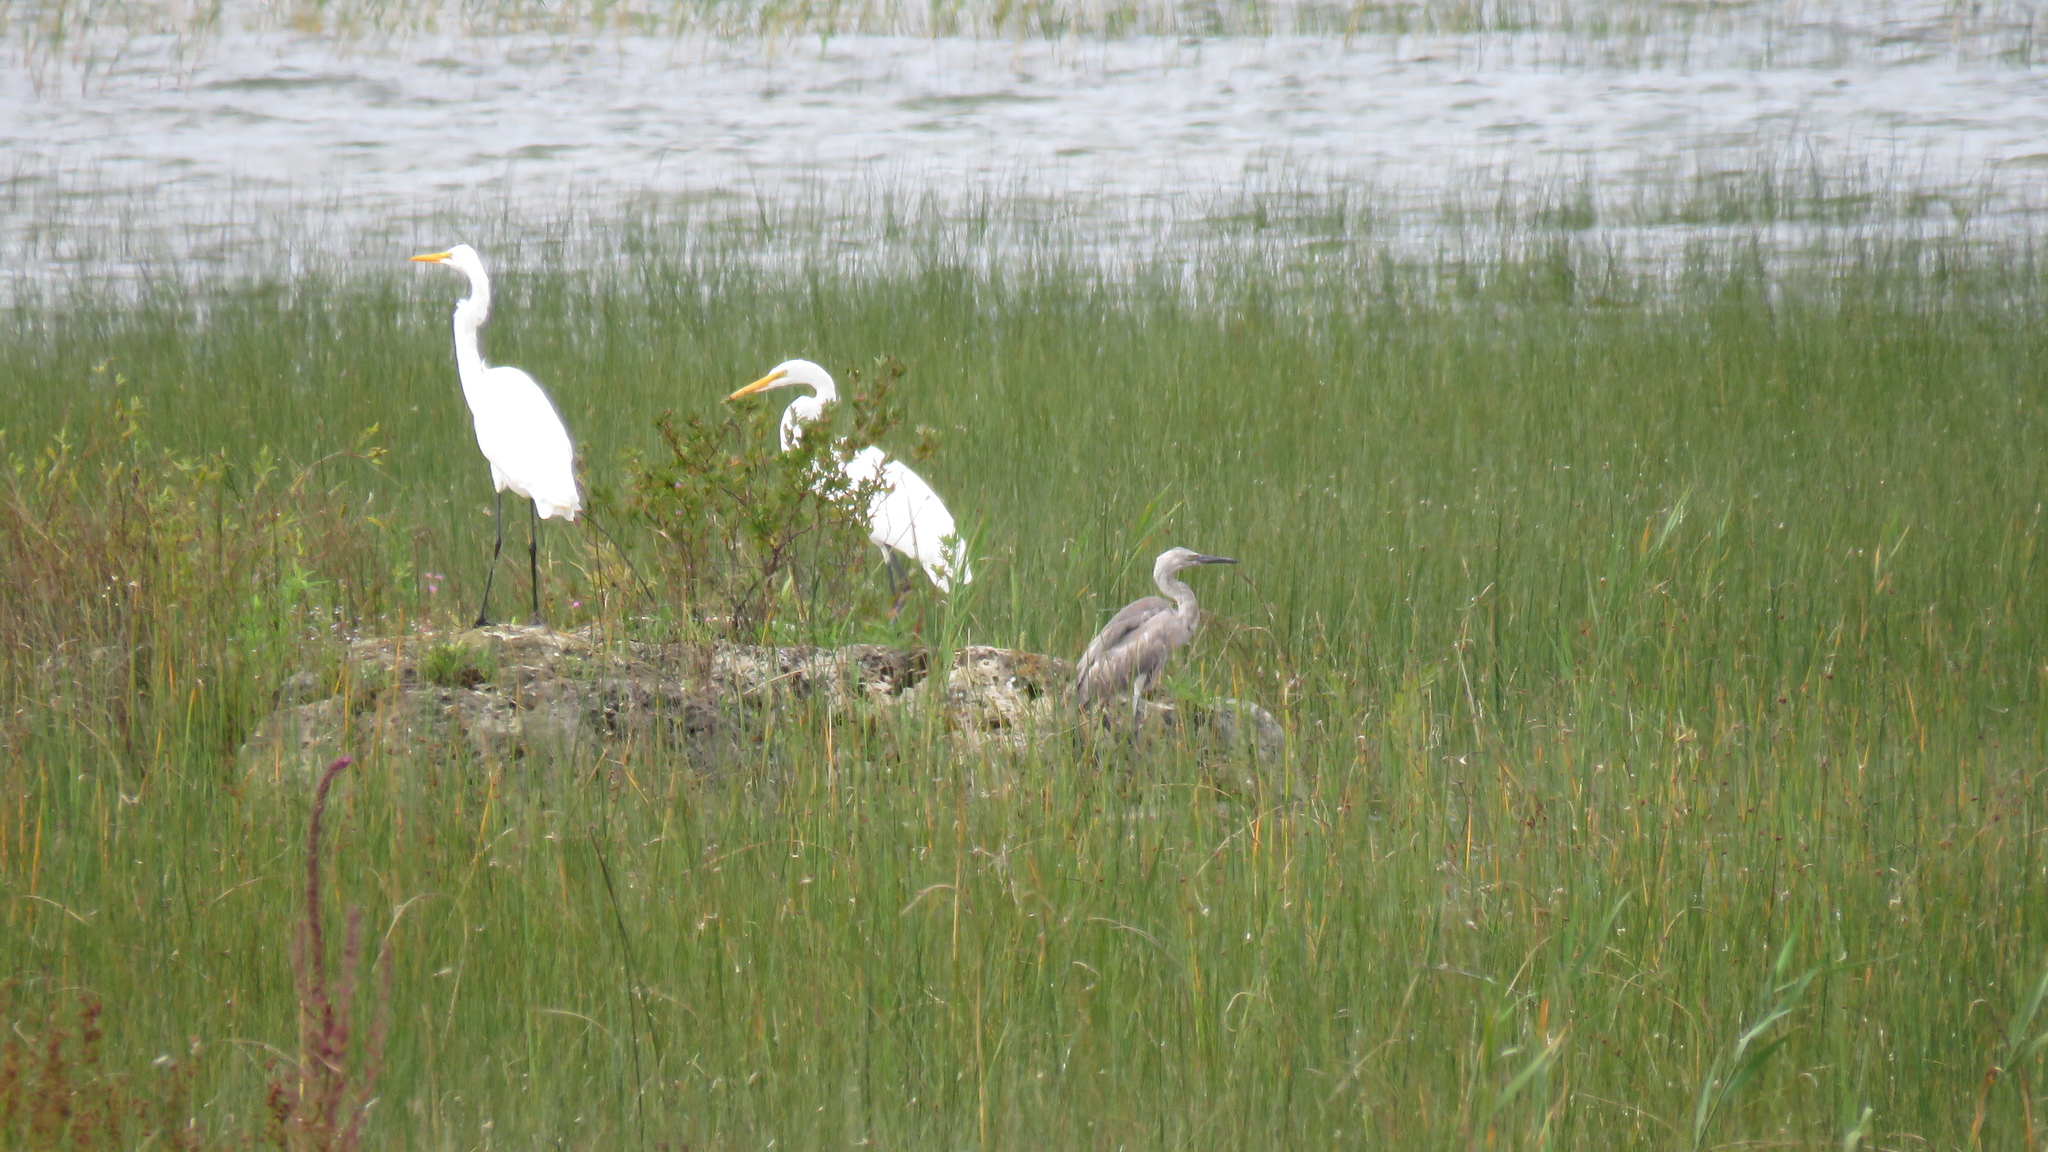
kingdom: Animalia
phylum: Chordata
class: Aves
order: Pelecaniformes
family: Ardeidae
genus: Egretta
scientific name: Egretta rufescens
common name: Reddish egret
